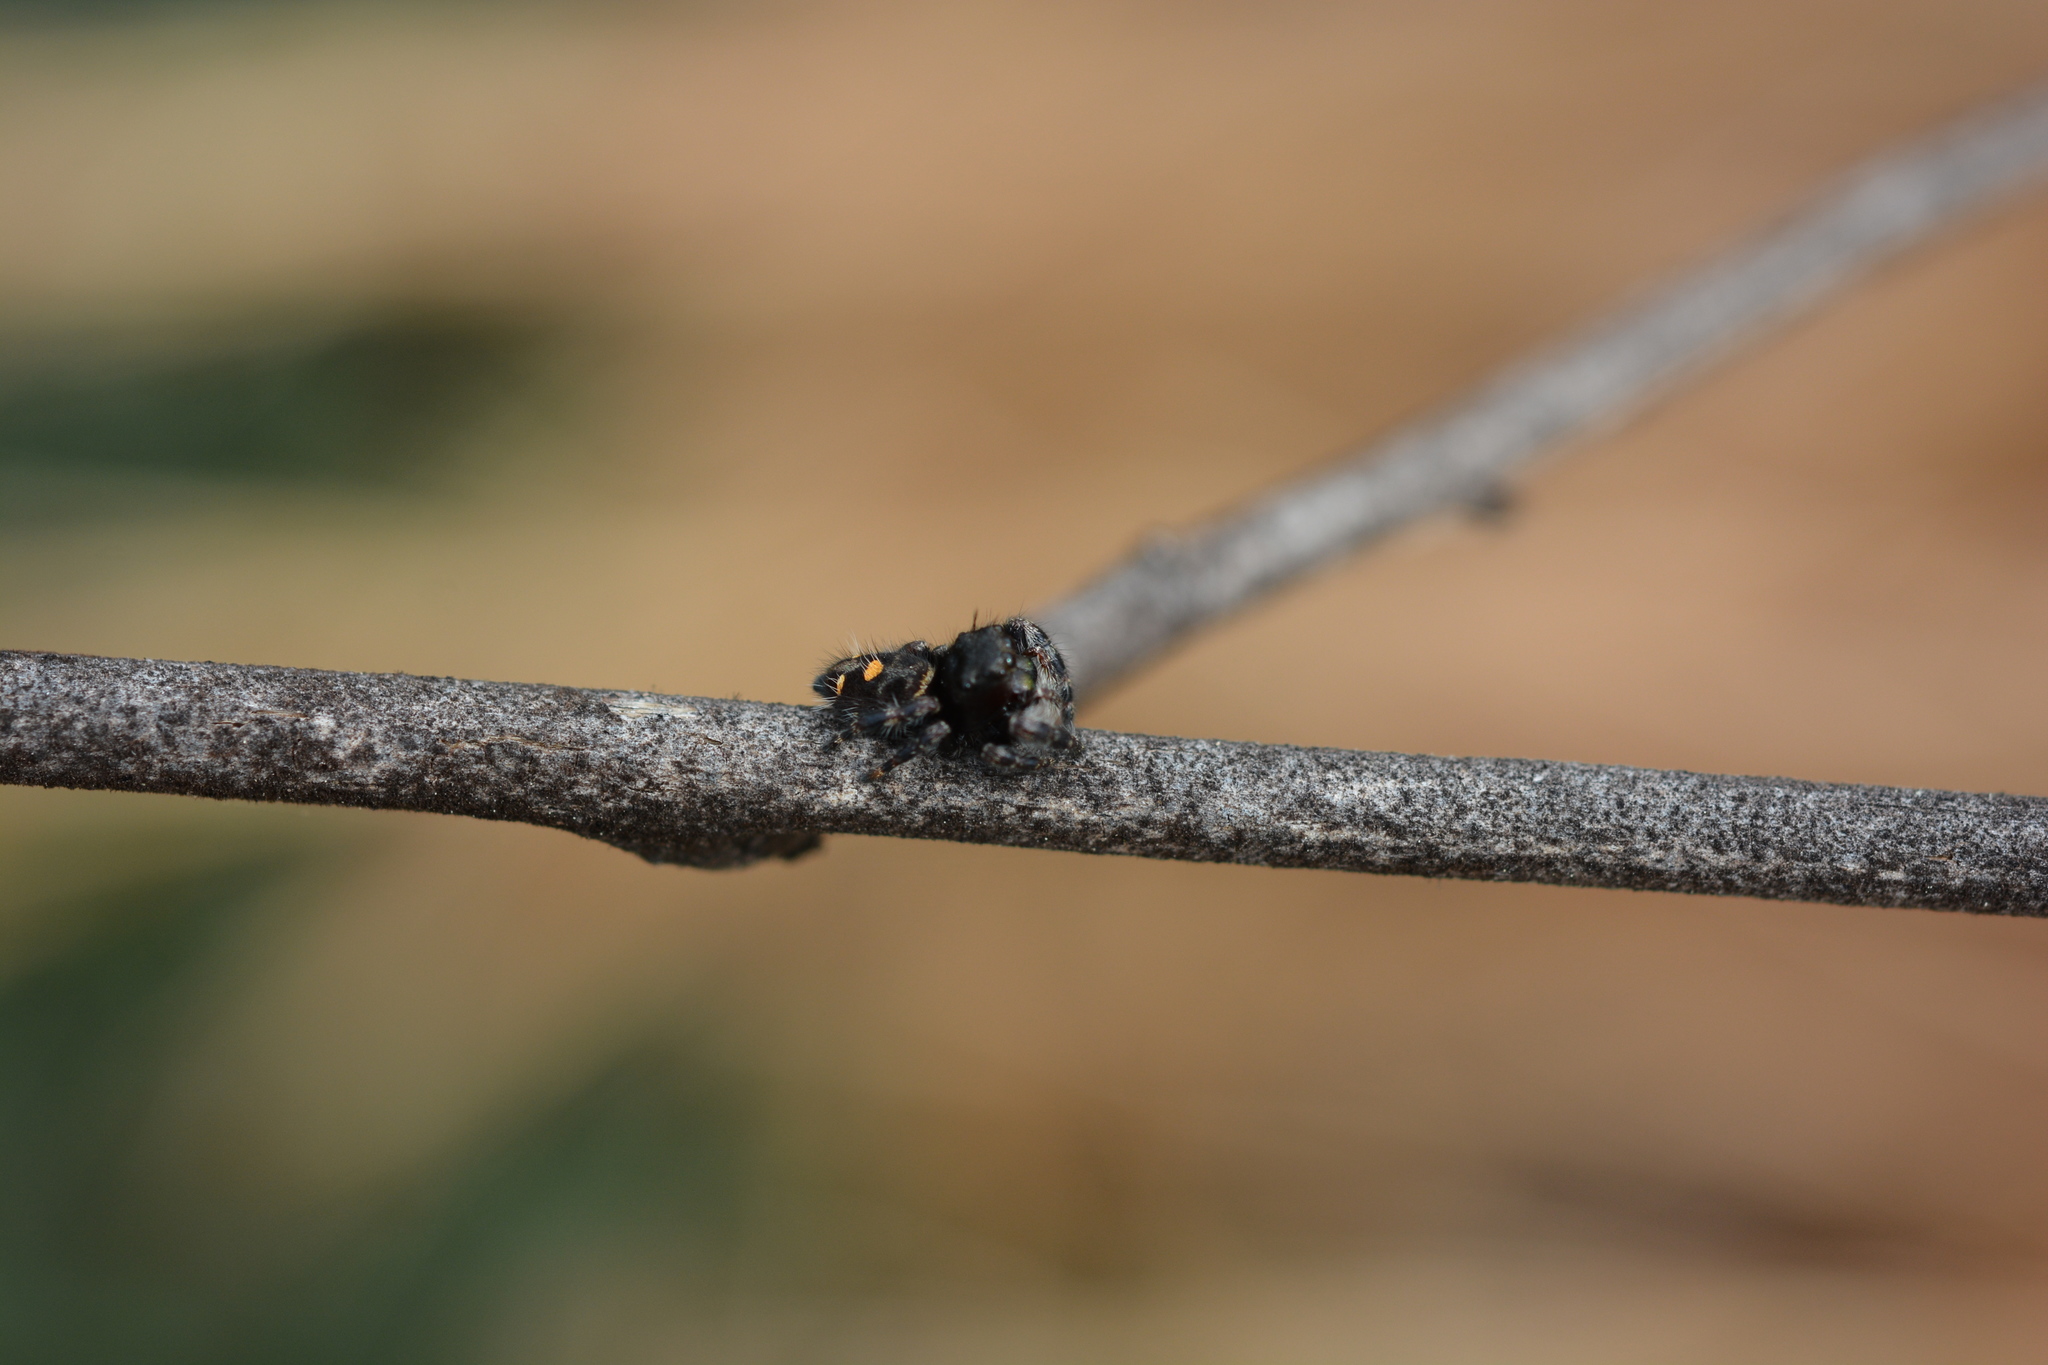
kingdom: Animalia
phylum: Arthropoda
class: Arachnida
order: Araneae
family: Salticidae
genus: Phidippus
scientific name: Phidippus audax
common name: Bold jumper
